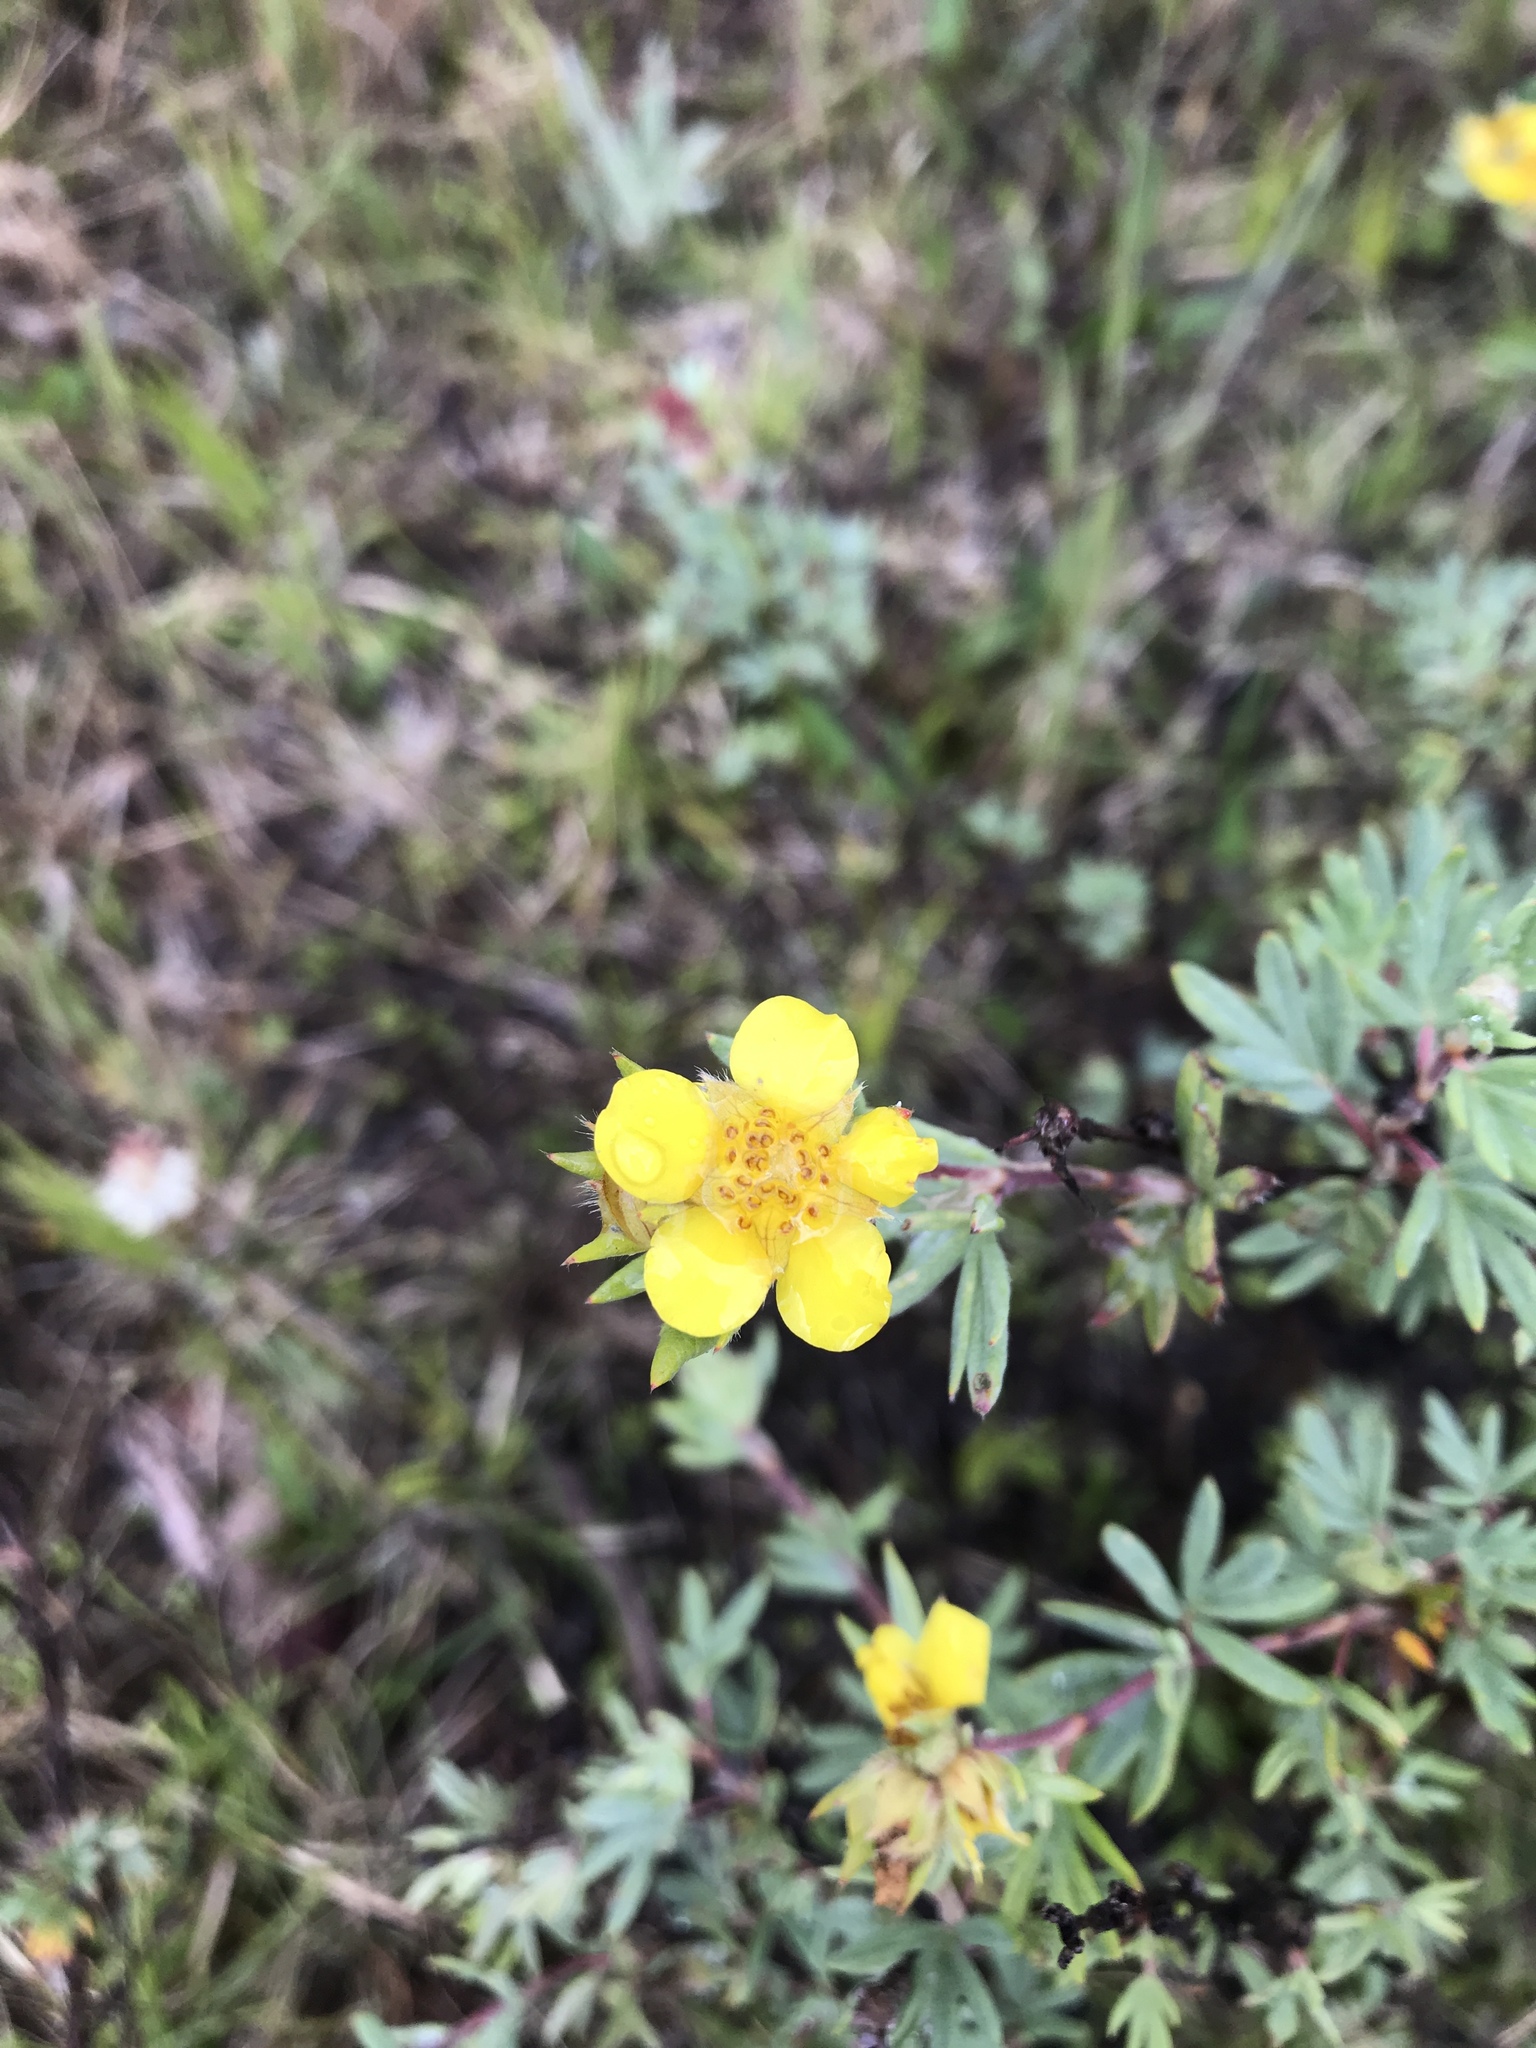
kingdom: Plantae
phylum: Tracheophyta
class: Magnoliopsida
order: Rosales
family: Rosaceae
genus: Dasiphora
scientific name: Dasiphora fruticosa
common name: Shrubby cinquefoil
